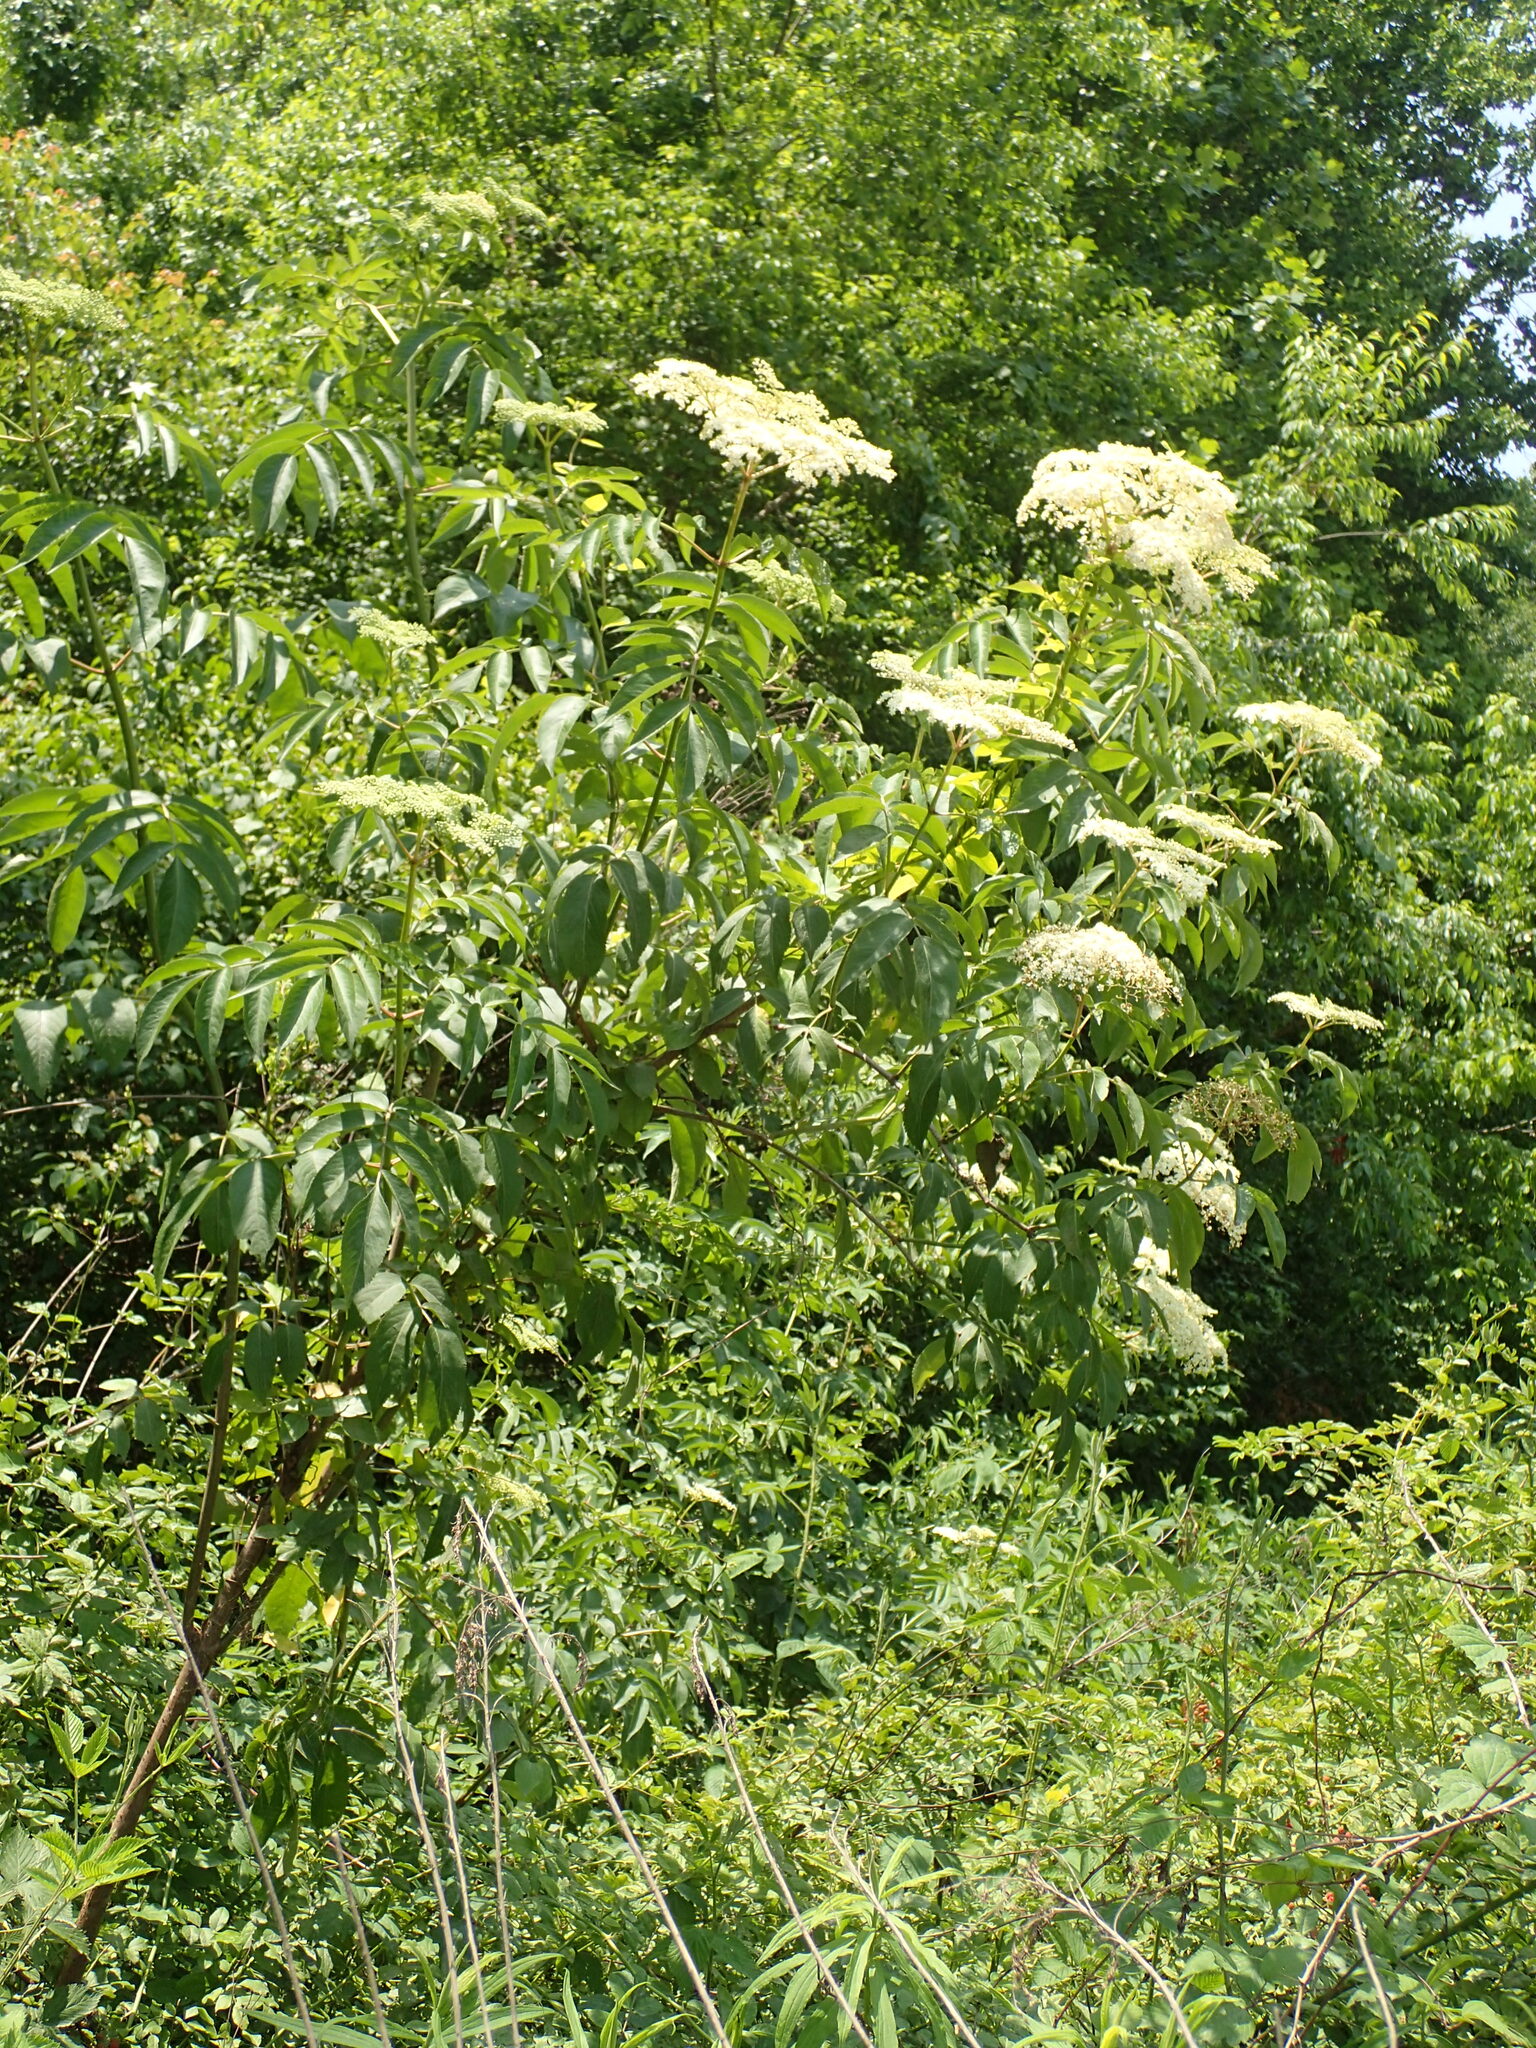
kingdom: Plantae
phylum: Tracheophyta
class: Magnoliopsida
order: Dipsacales
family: Viburnaceae
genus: Sambucus
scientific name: Sambucus canadensis
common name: American elder
